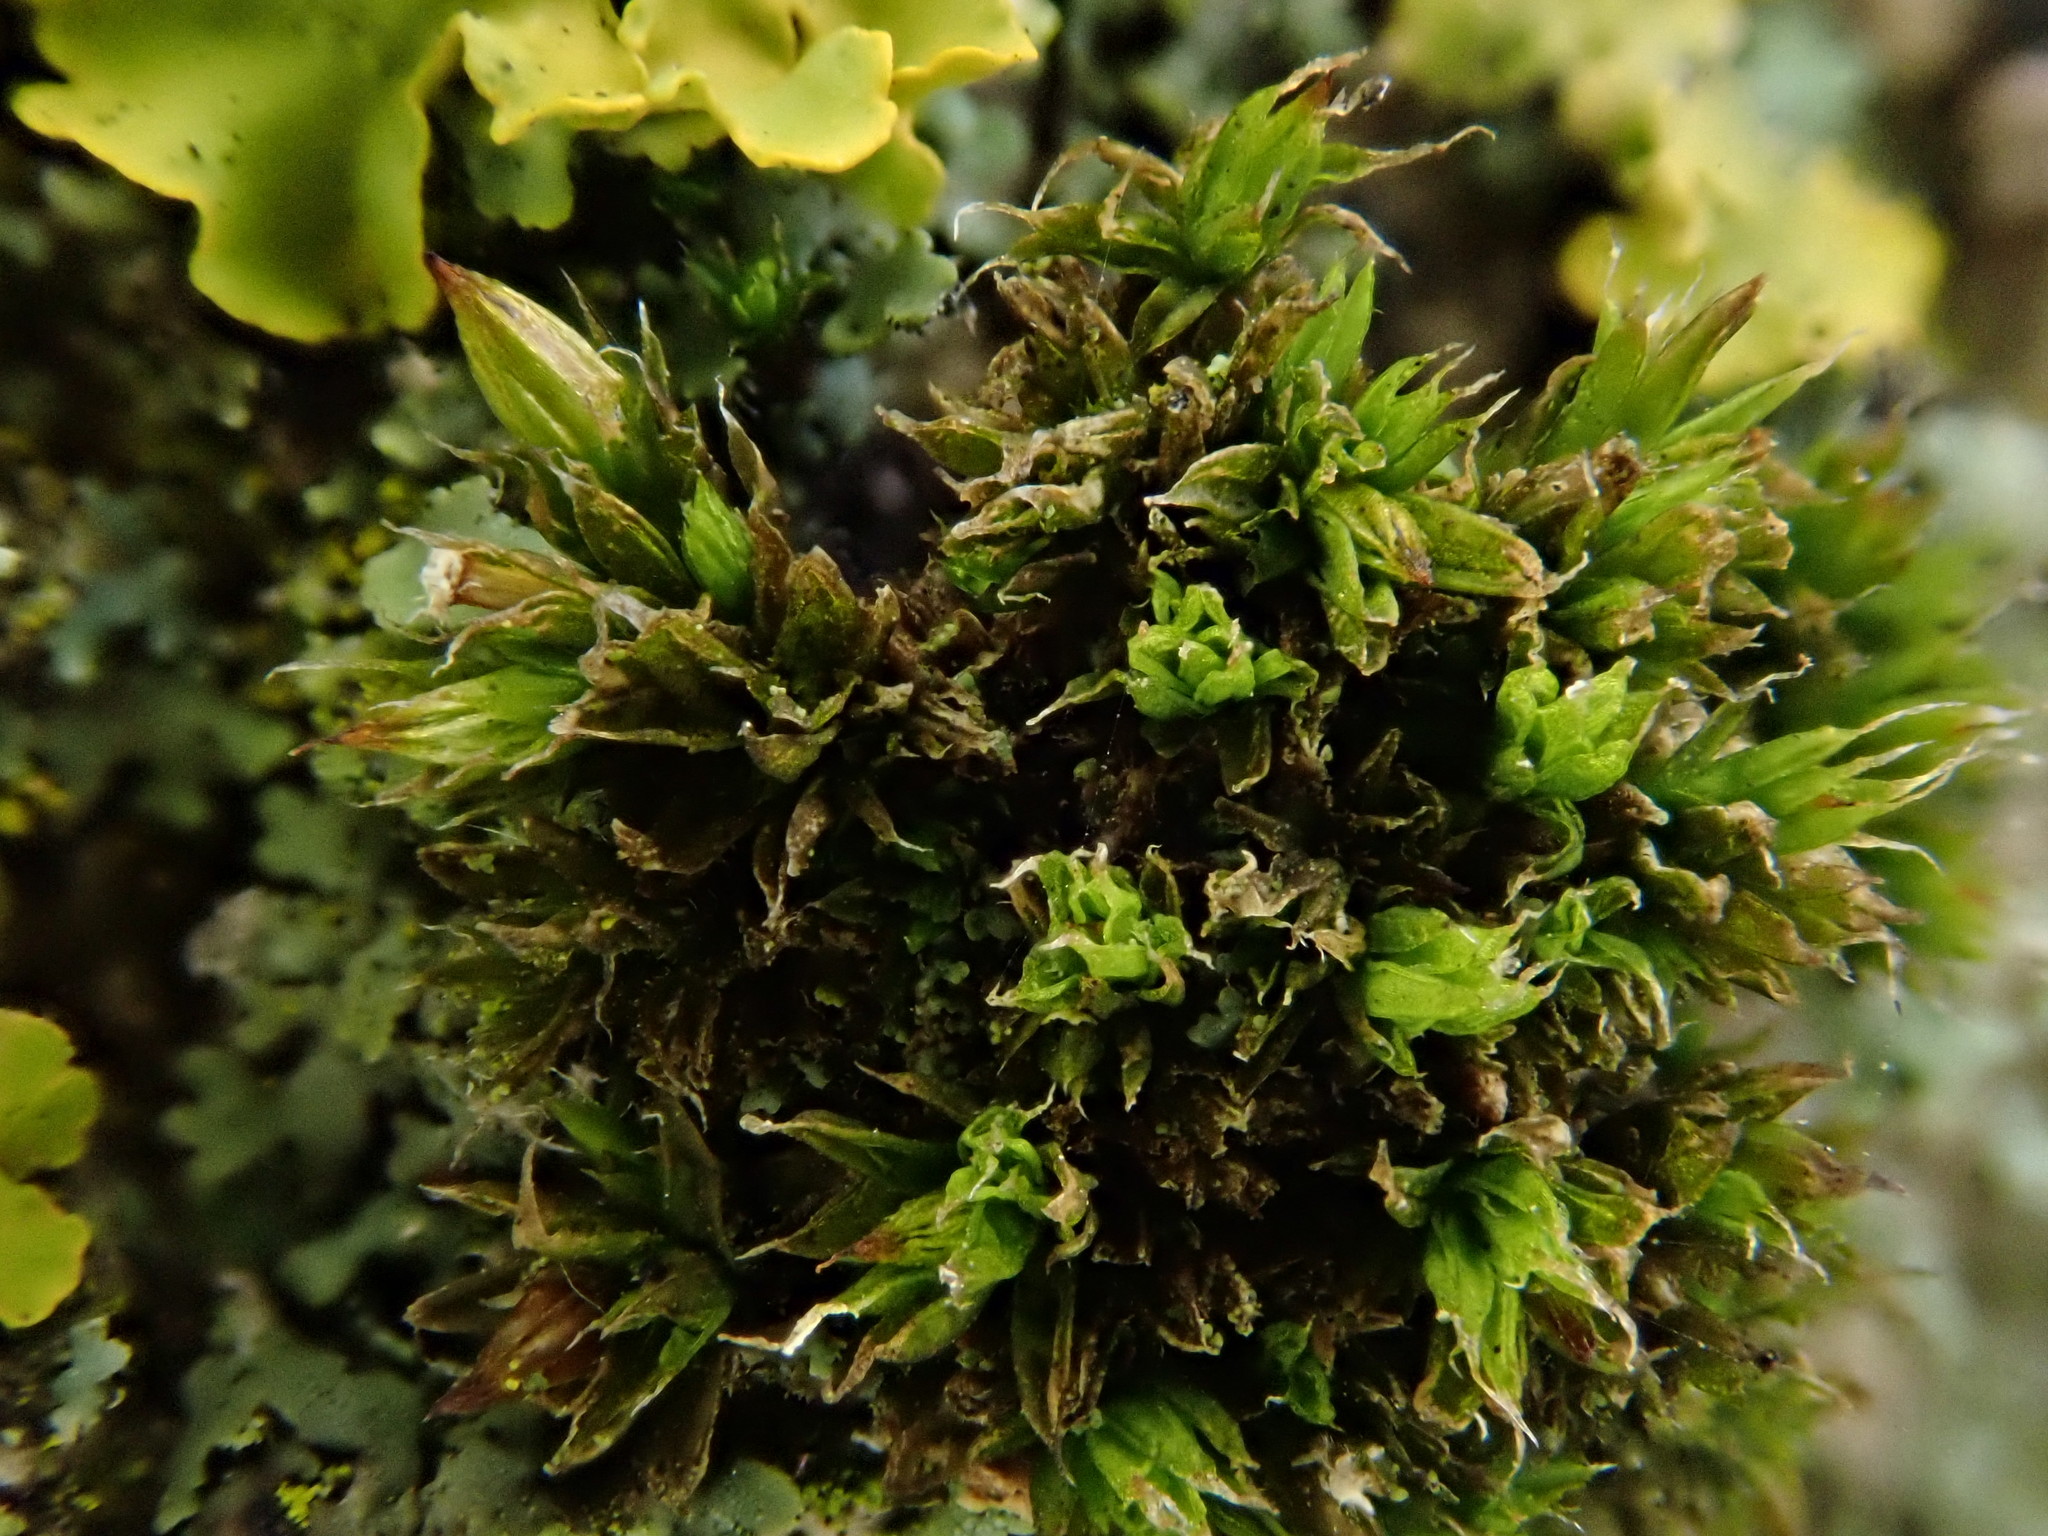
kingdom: Plantae
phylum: Bryophyta
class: Bryopsida
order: Orthotrichales
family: Orthotrichaceae
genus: Orthotrichum
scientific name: Orthotrichum diaphanum
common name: White-tipped bristle-moss
